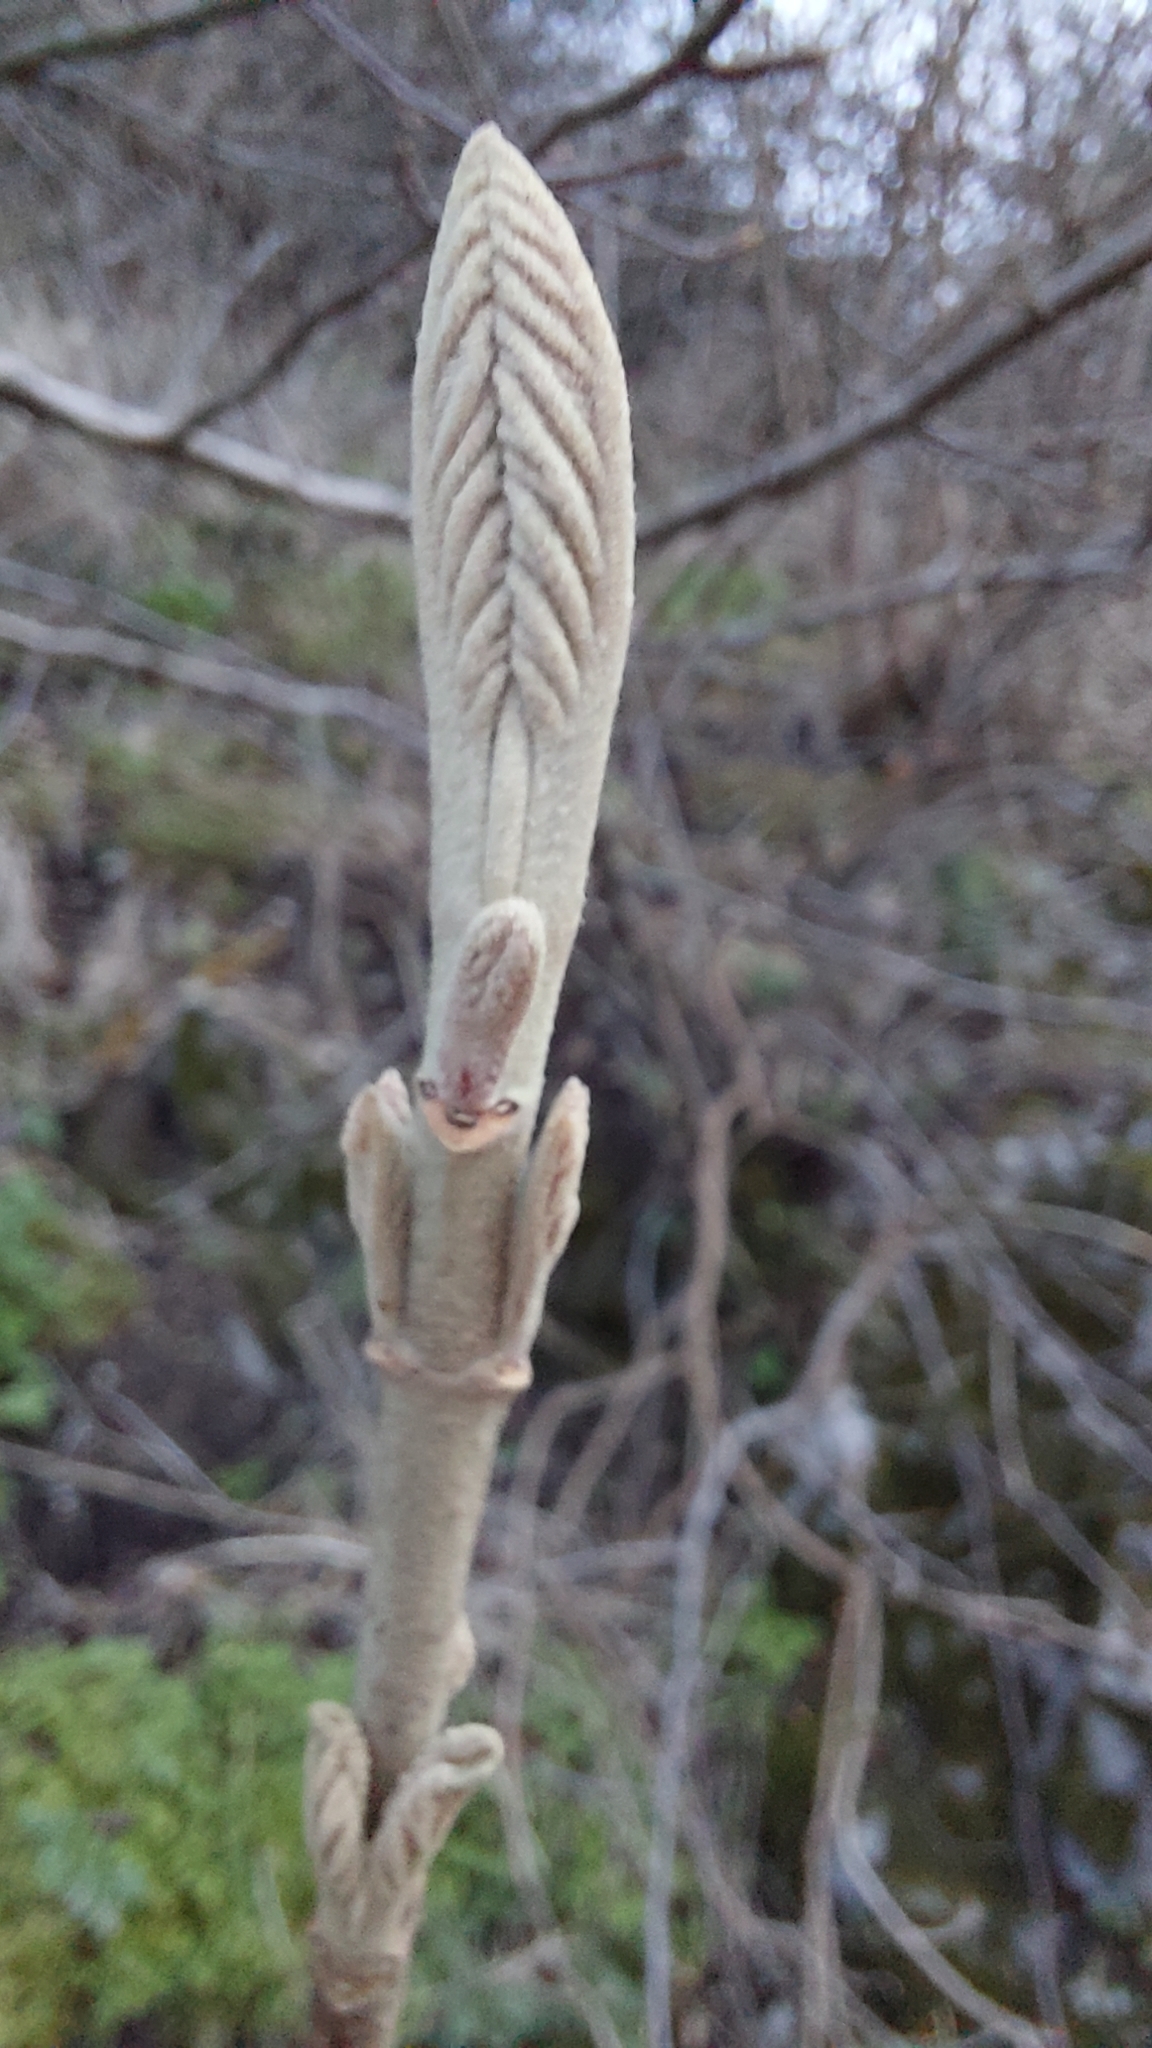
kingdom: Plantae
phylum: Tracheophyta
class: Magnoliopsida
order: Dipsacales
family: Viburnaceae
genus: Viburnum
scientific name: Viburnum lantana
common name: Wayfaring tree
